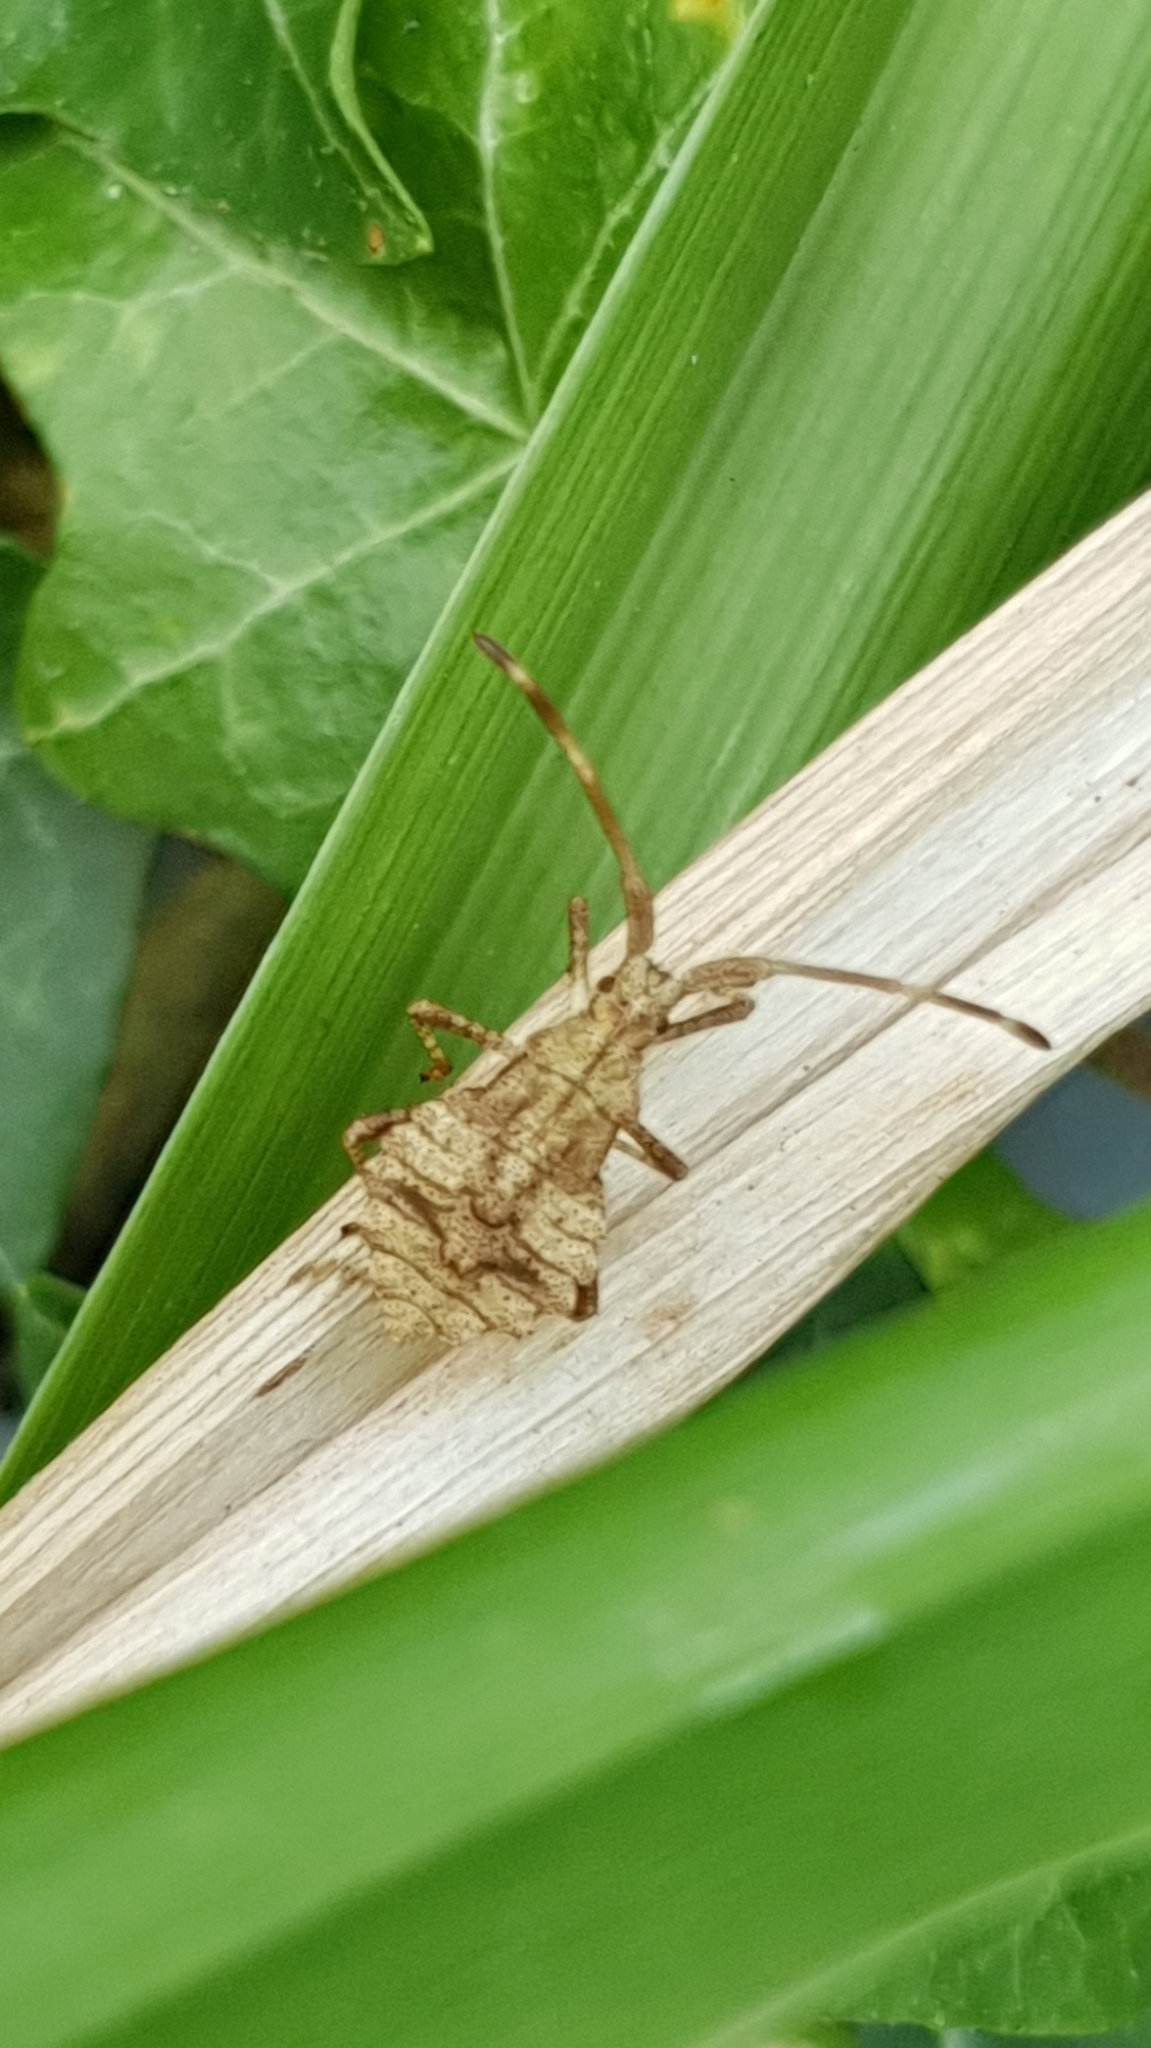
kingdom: Animalia
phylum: Arthropoda
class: Insecta
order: Hemiptera
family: Coreidae
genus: Coreus
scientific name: Coreus marginatus
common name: Dock bug
